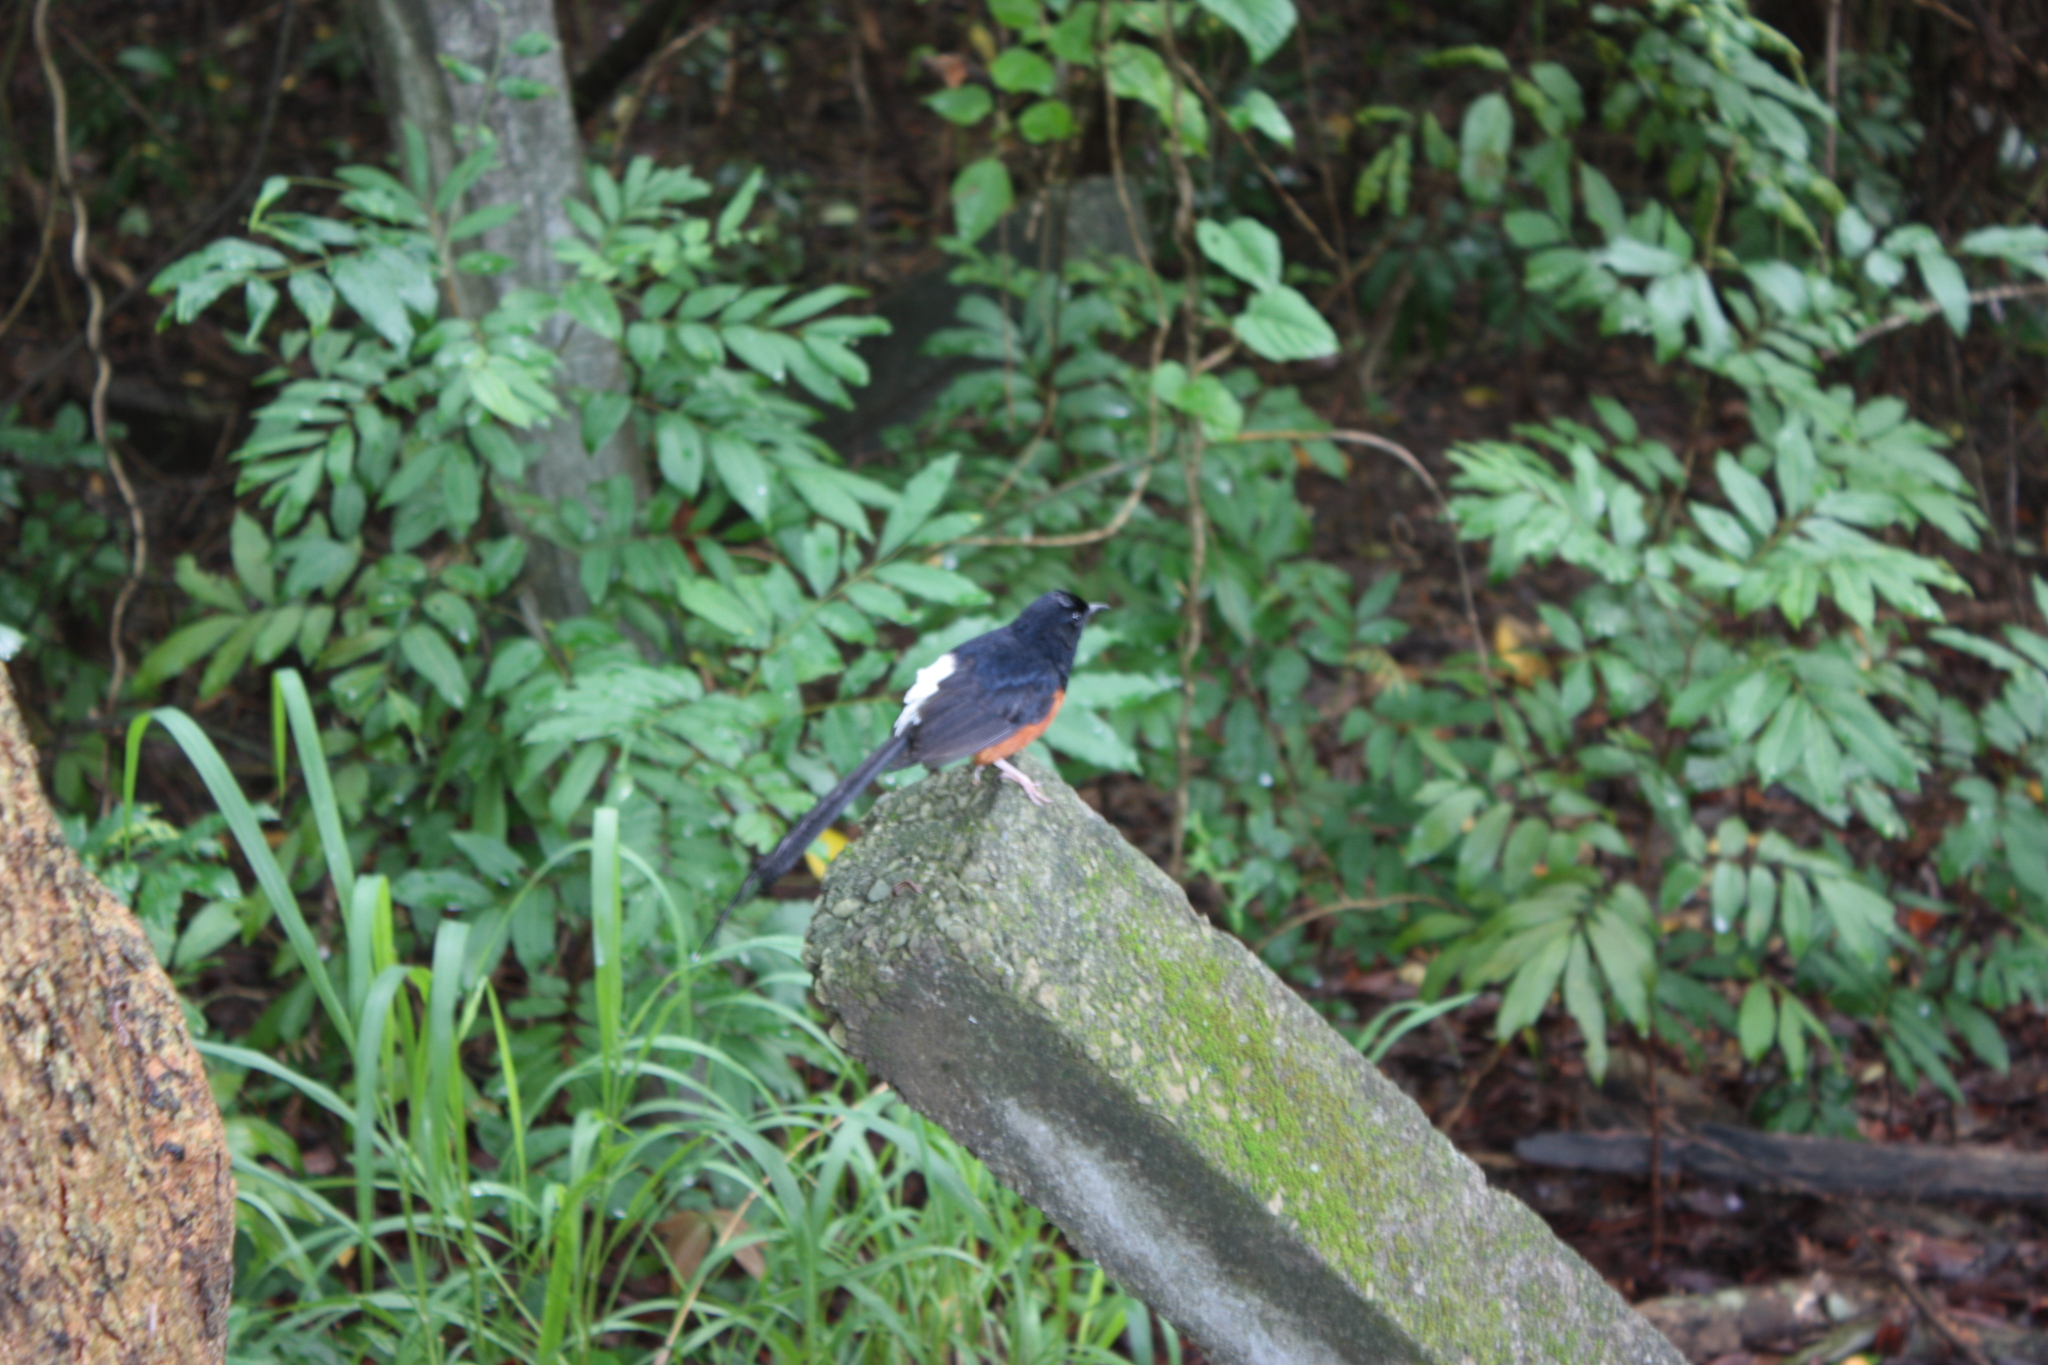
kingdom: Animalia
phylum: Chordata
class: Aves
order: Passeriformes
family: Muscicapidae
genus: Copsychus
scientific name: Copsychus malabaricus
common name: White-rumped shama
